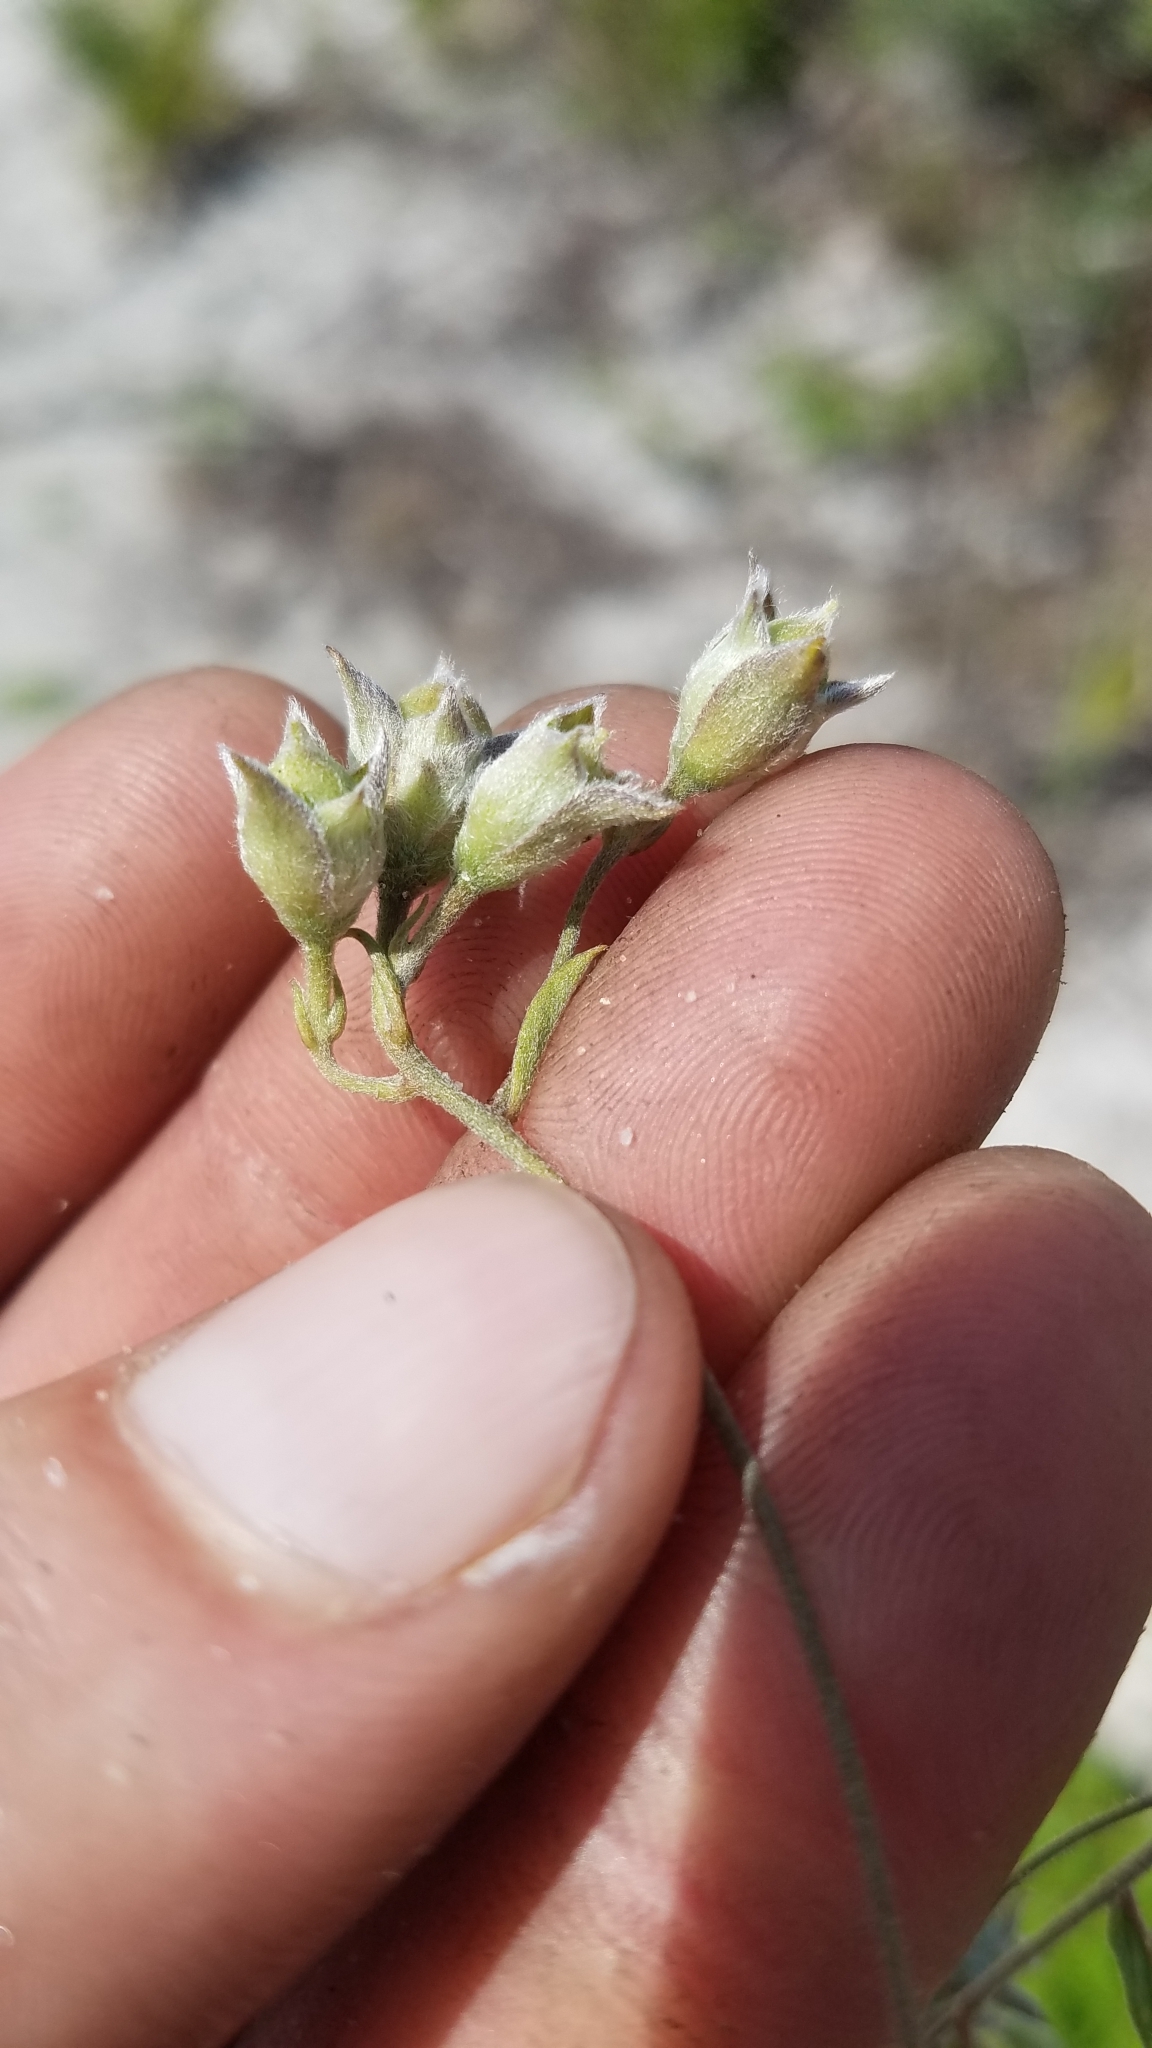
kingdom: Plantae
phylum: Tracheophyta
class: Magnoliopsida
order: Solanales
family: Convolvulaceae
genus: Stylisma
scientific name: Stylisma villosa
